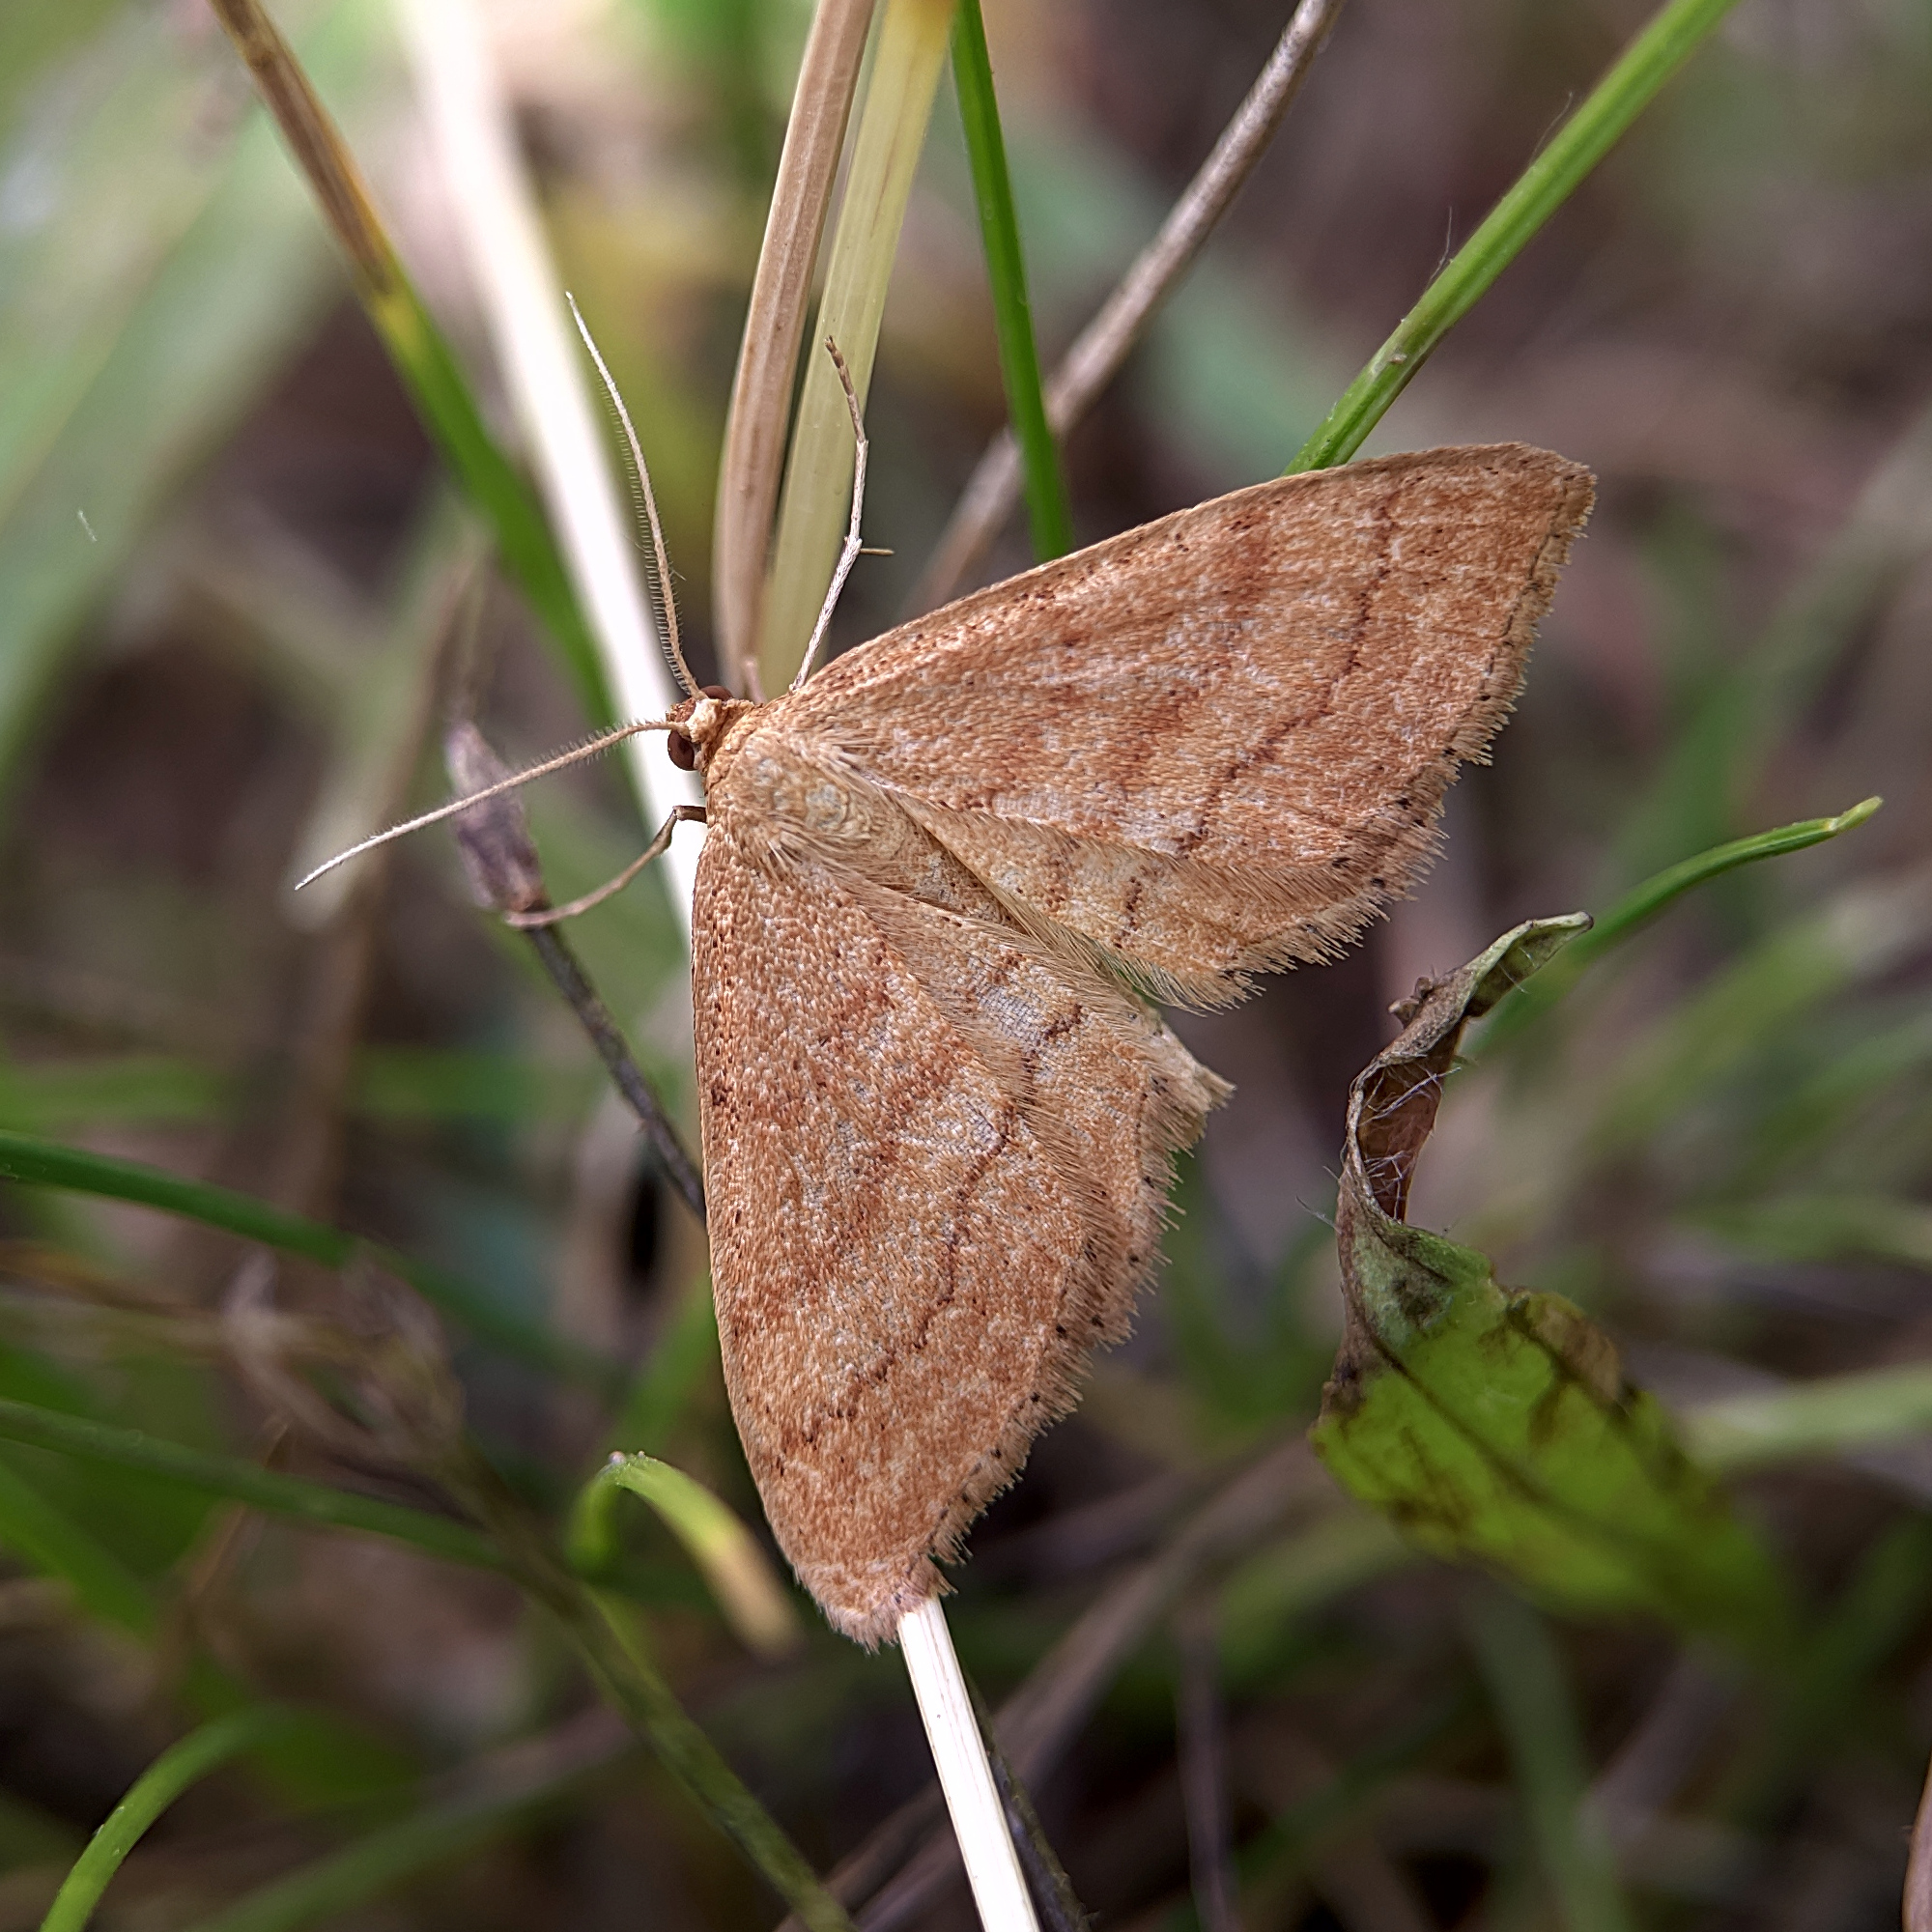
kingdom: Animalia
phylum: Arthropoda
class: Insecta
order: Lepidoptera
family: Geometridae
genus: Idaea
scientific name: Idaea ochrata
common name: Bright wave
